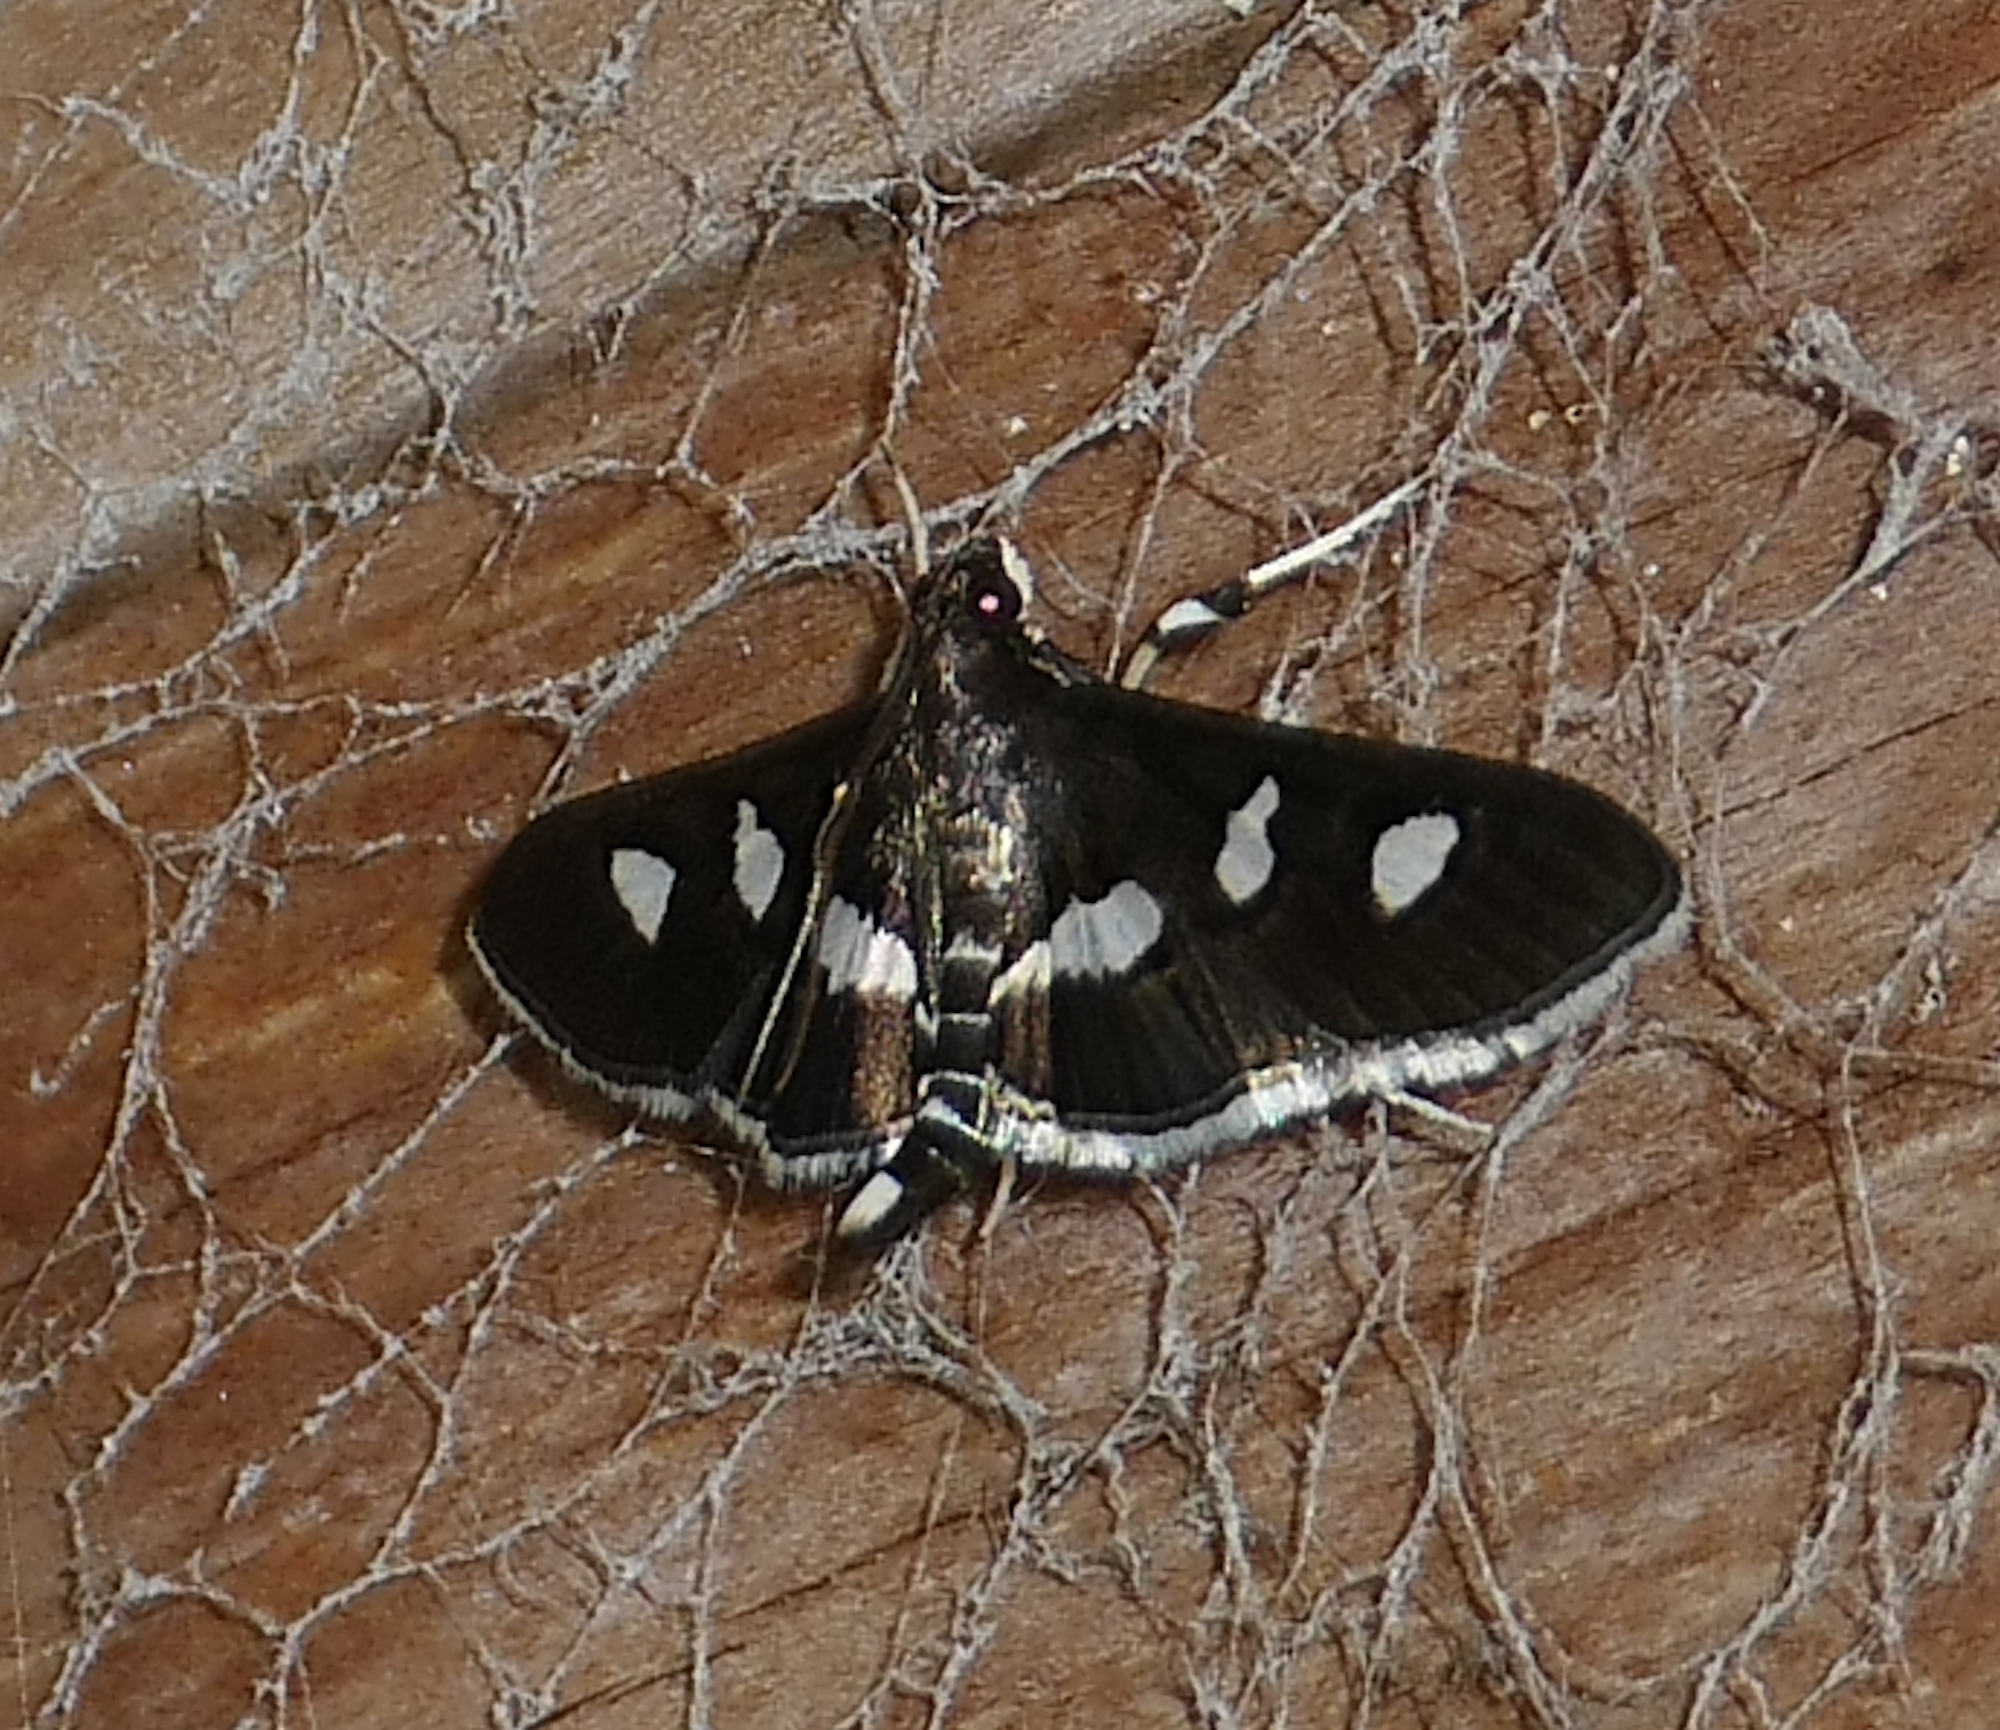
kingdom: Animalia
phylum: Arthropoda
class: Insecta
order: Lepidoptera
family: Crambidae
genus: Desmia
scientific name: Desmia funeralis
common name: Grape leaf folder moth
